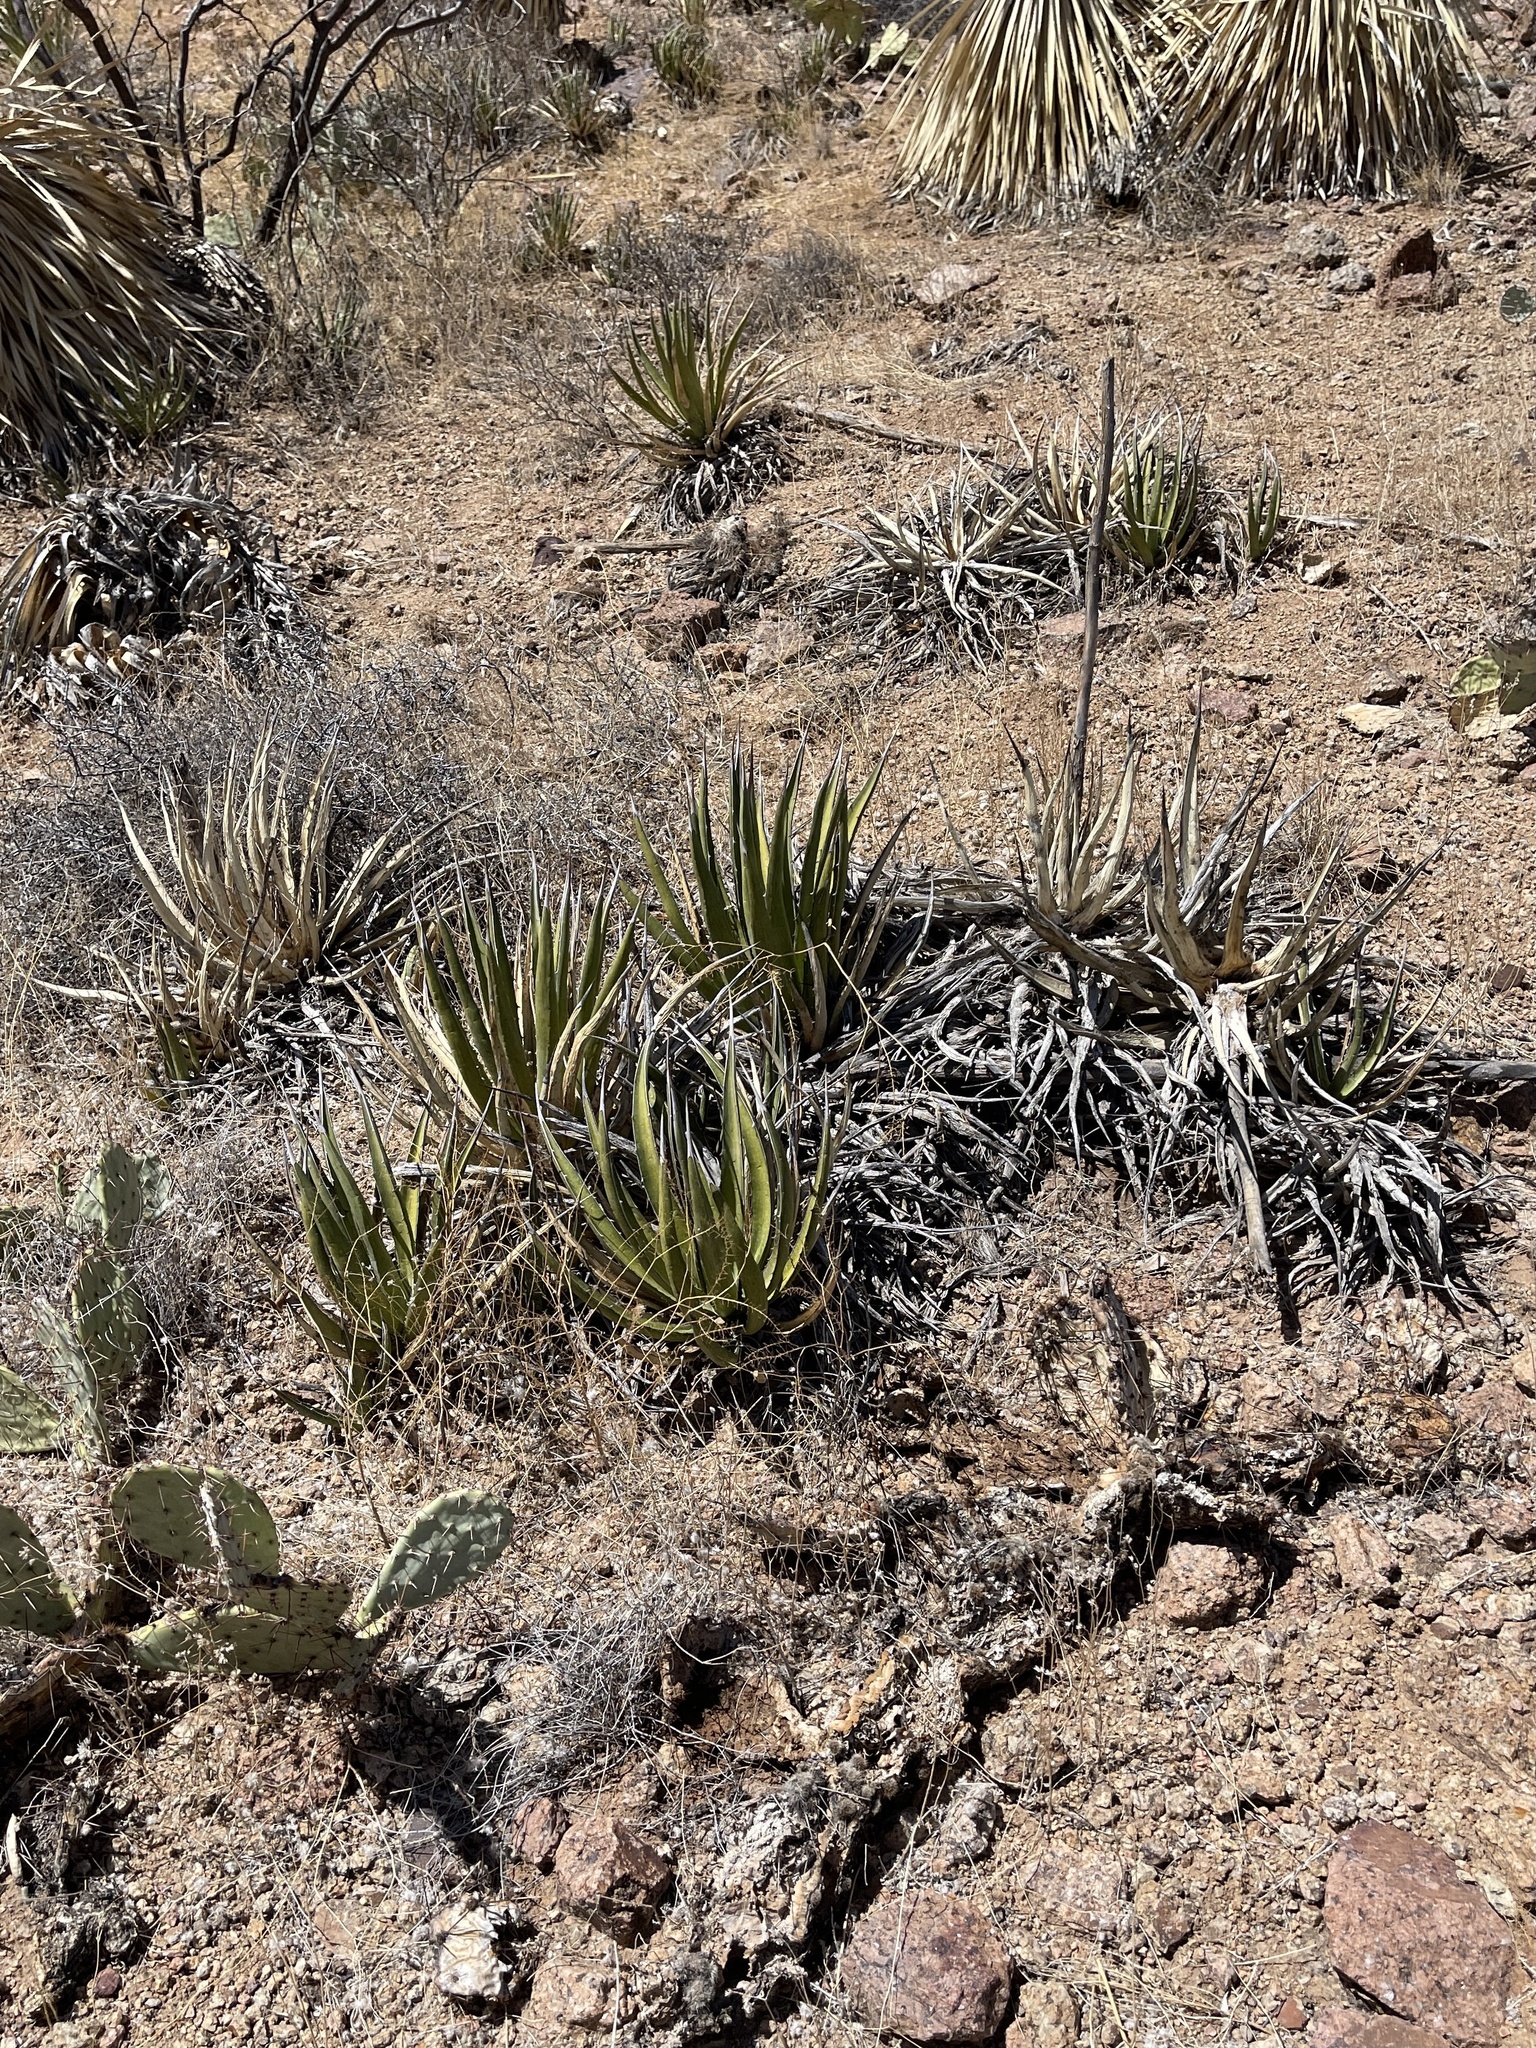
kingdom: Plantae
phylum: Tracheophyta
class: Liliopsida
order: Asparagales
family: Asparagaceae
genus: Agave
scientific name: Agave lechuguilla
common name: Lecheguilla agave
